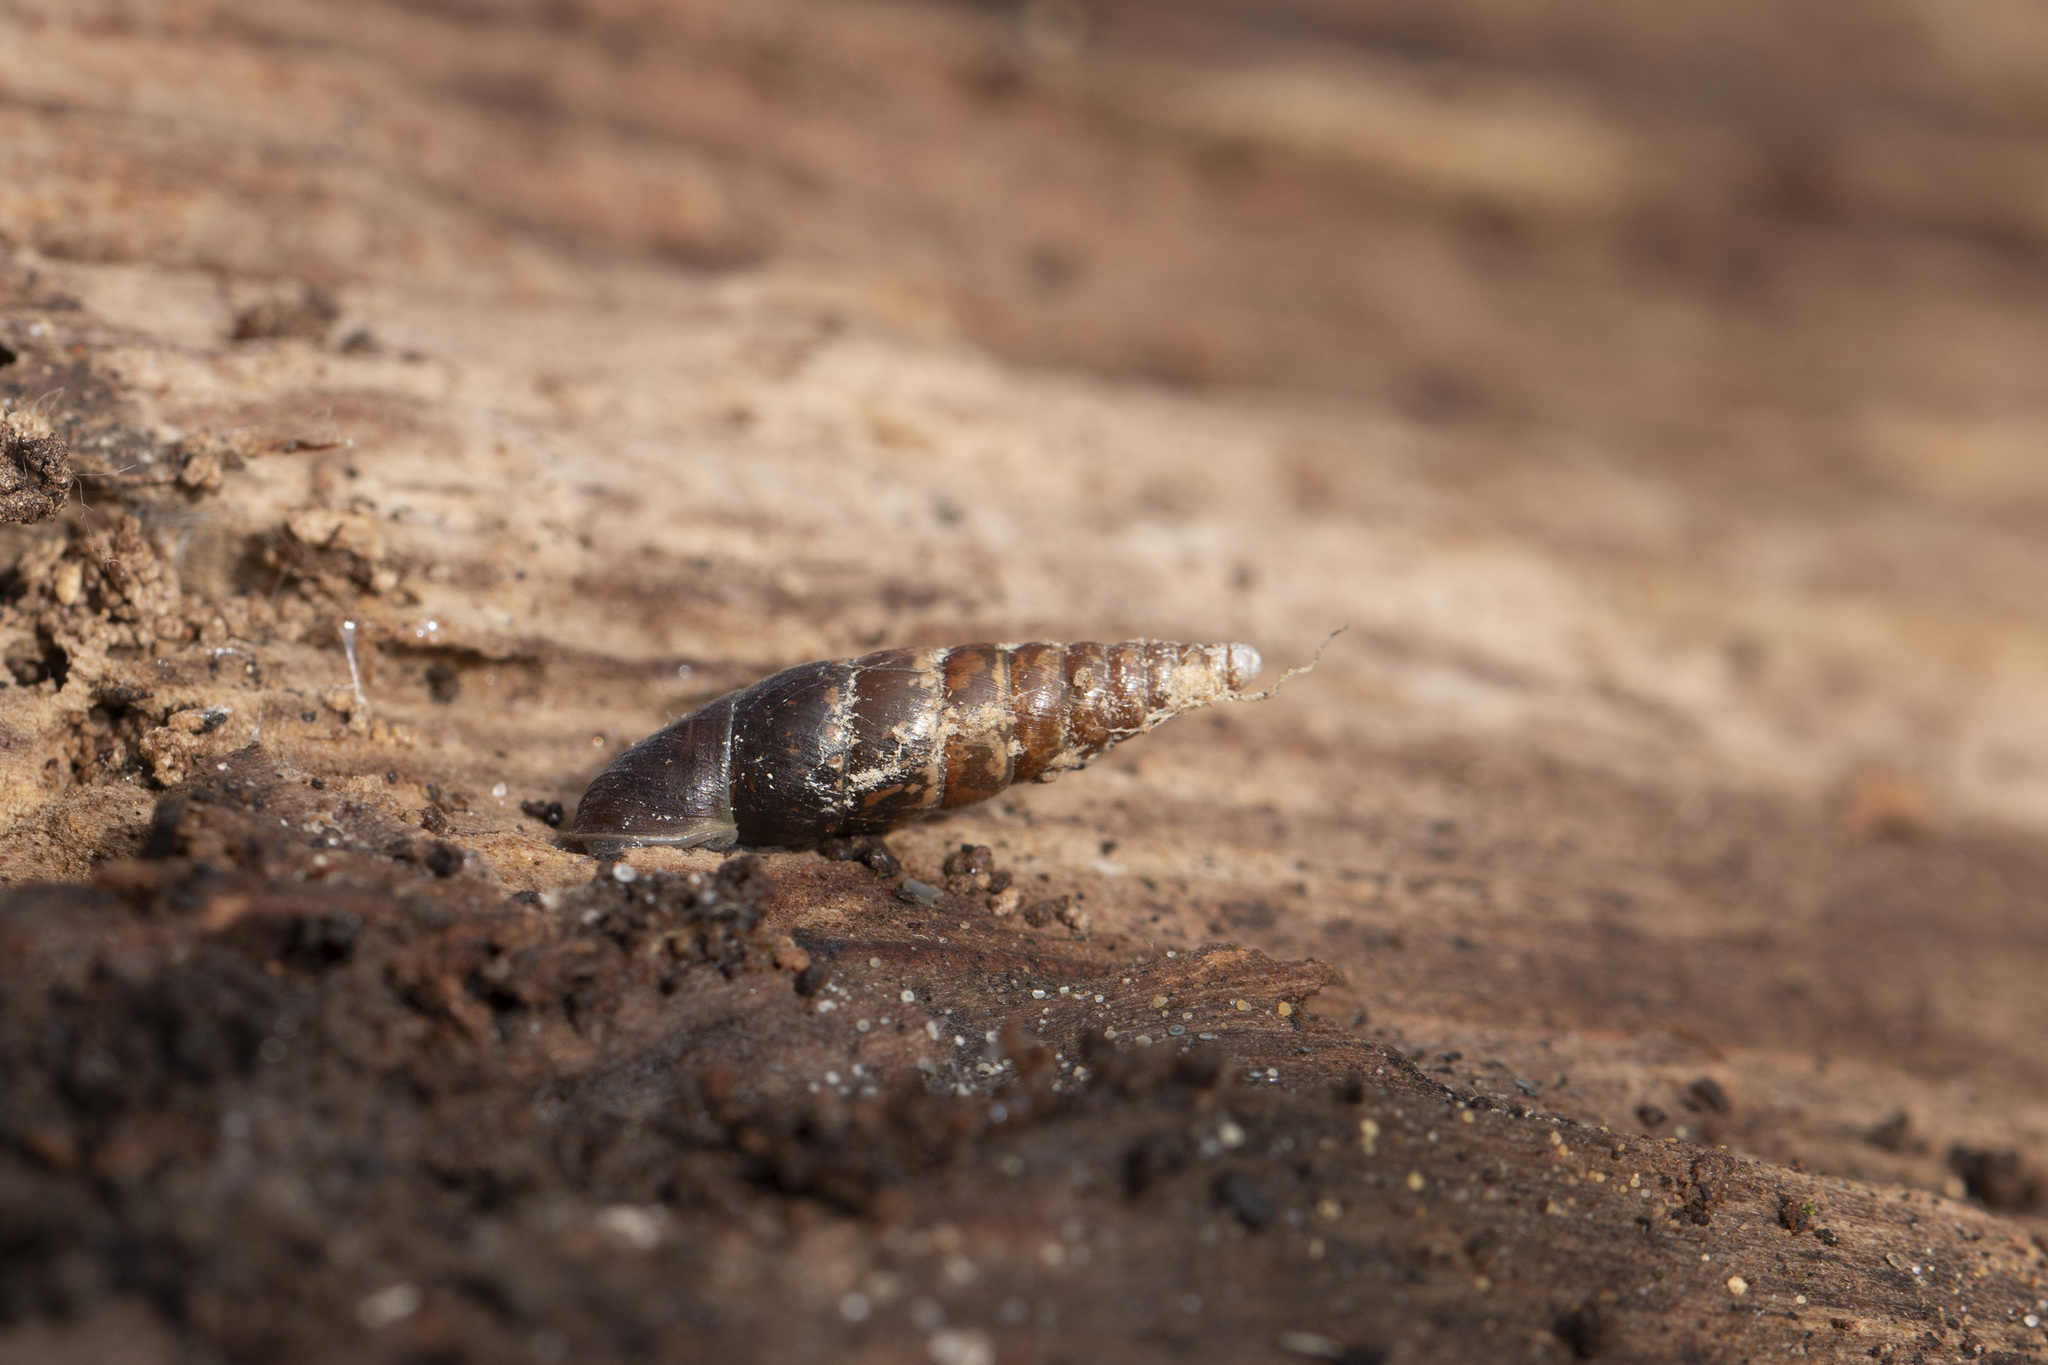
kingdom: Animalia
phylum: Mollusca
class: Gastropoda
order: Stylommatophora
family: Clausiliidae
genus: Cochlodina
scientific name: Cochlodina laminata
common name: Plaited door snail
